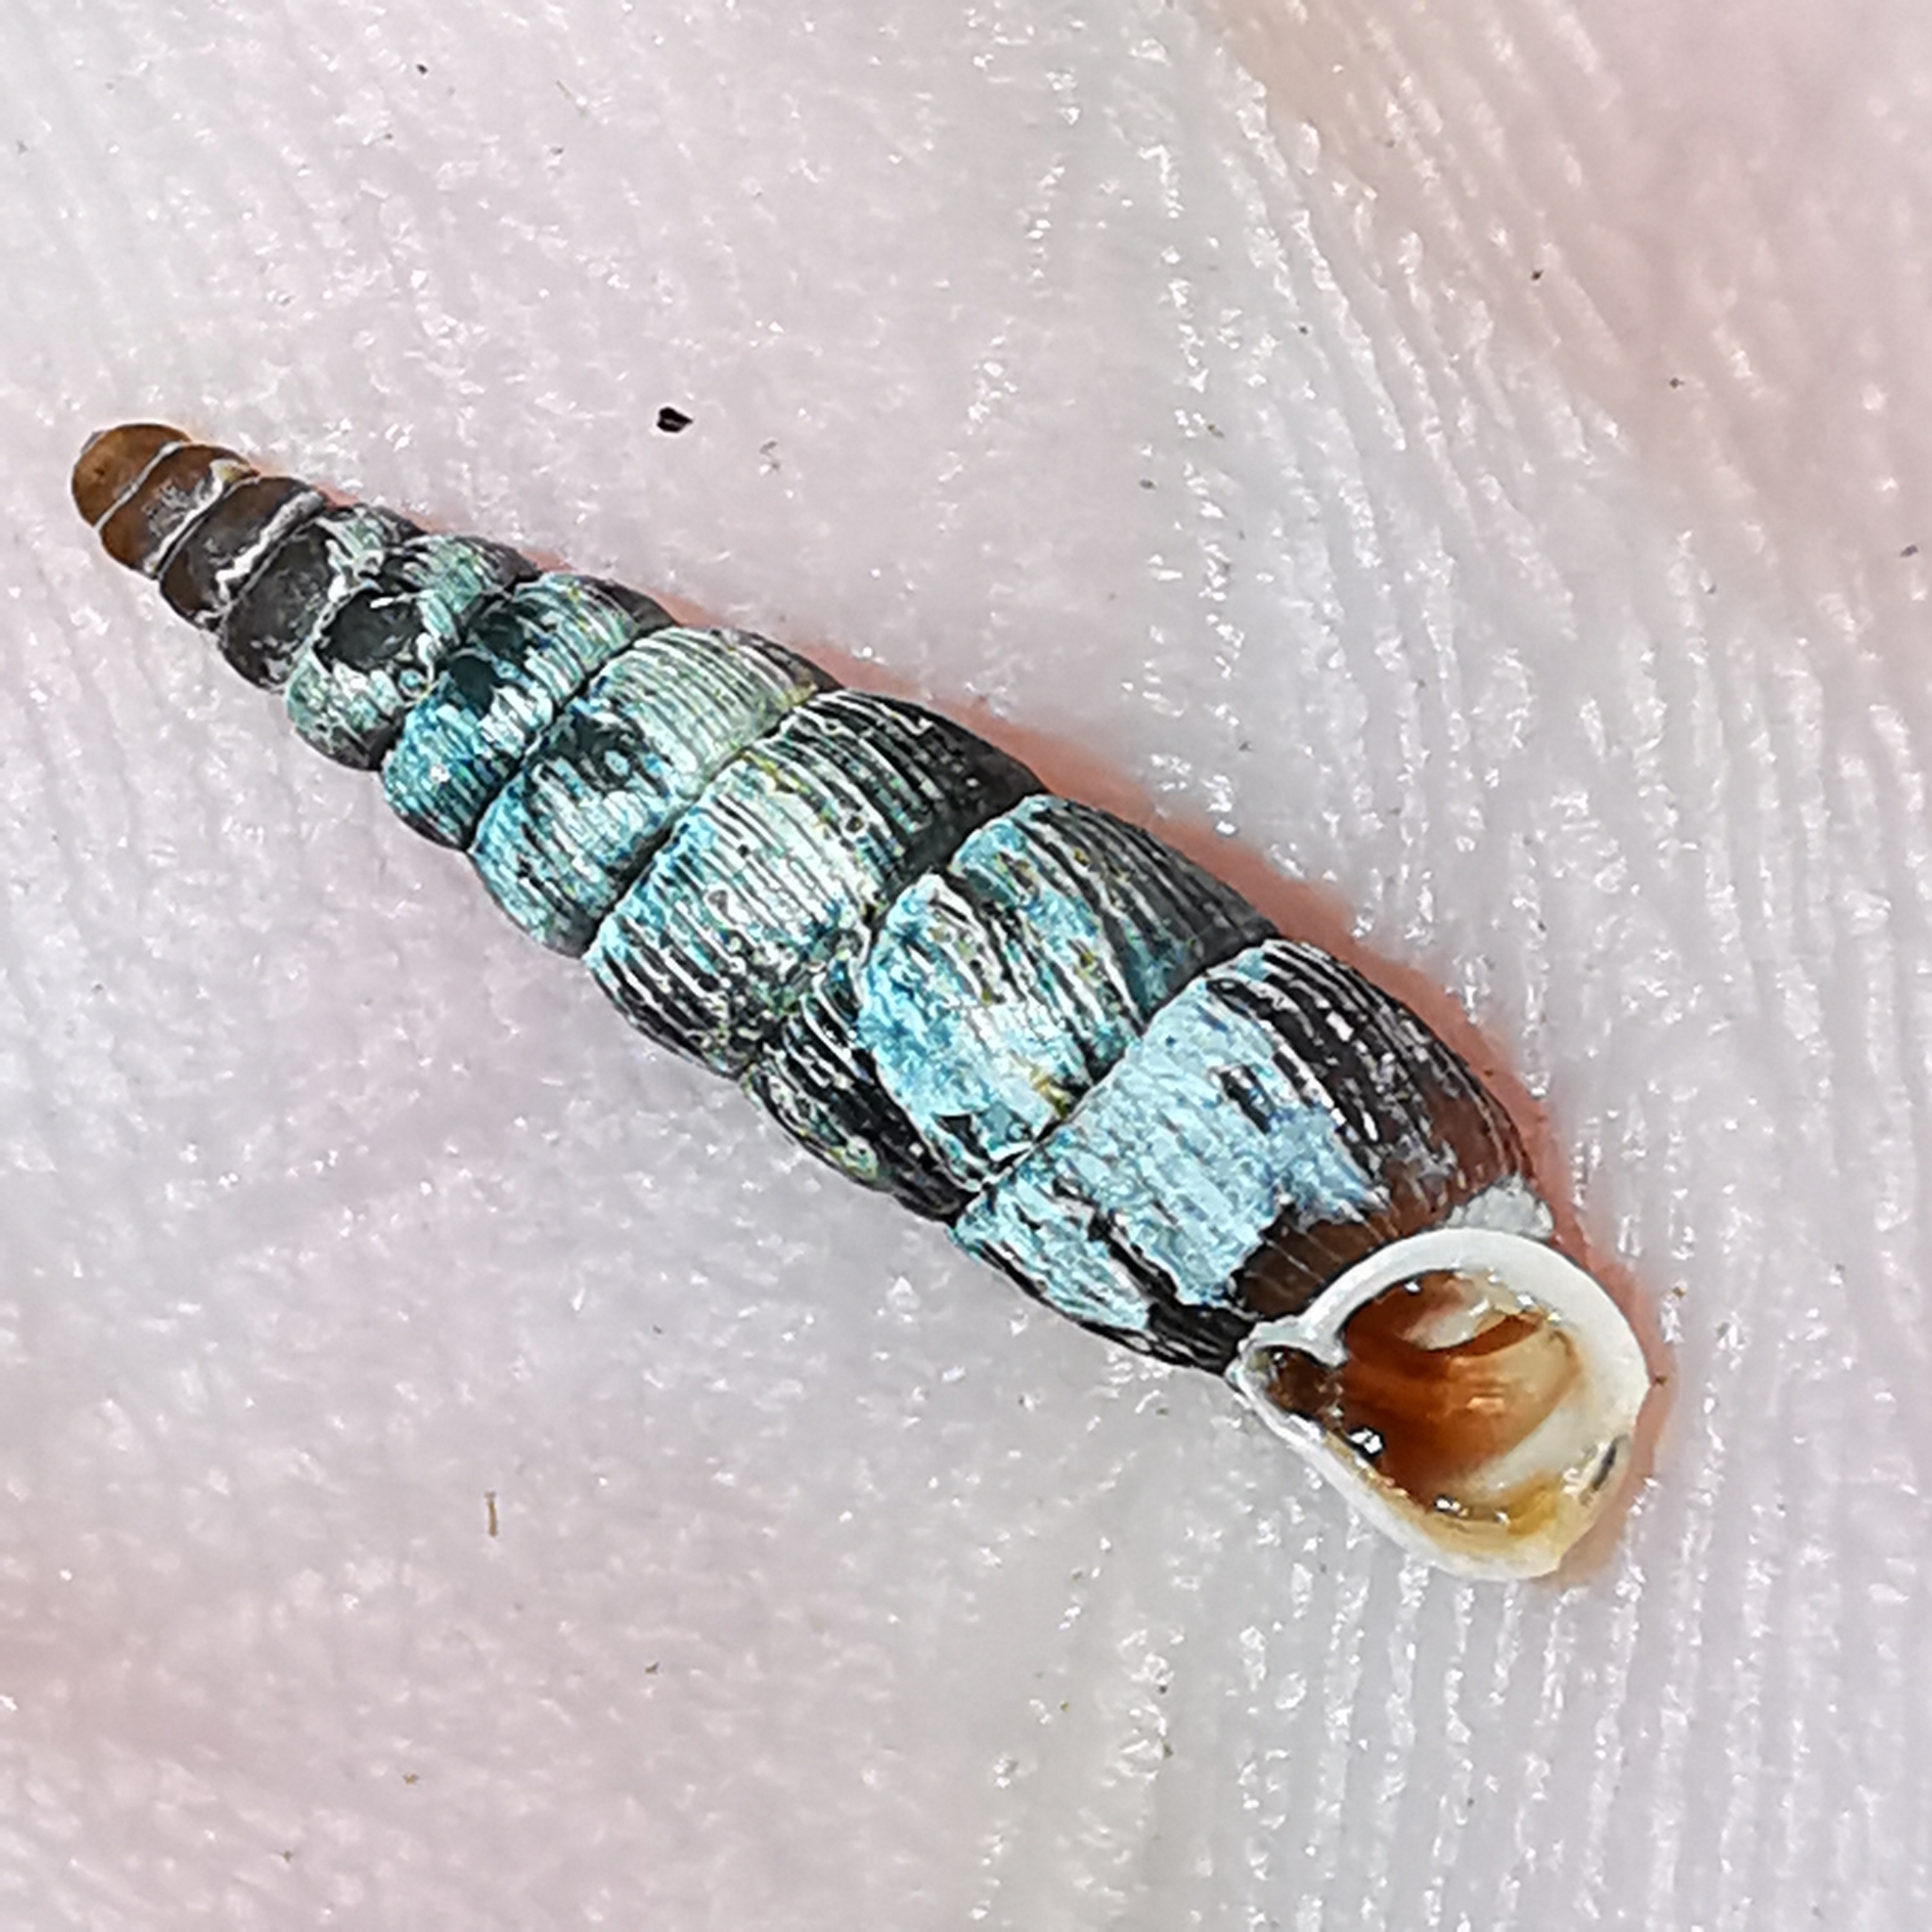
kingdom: Animalia
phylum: Mollusca
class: Gastropoda
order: Stylommatophora
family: Clausiliidae
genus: Macrogastra
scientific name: Macrogastra plicatula
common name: Plicate door snail
